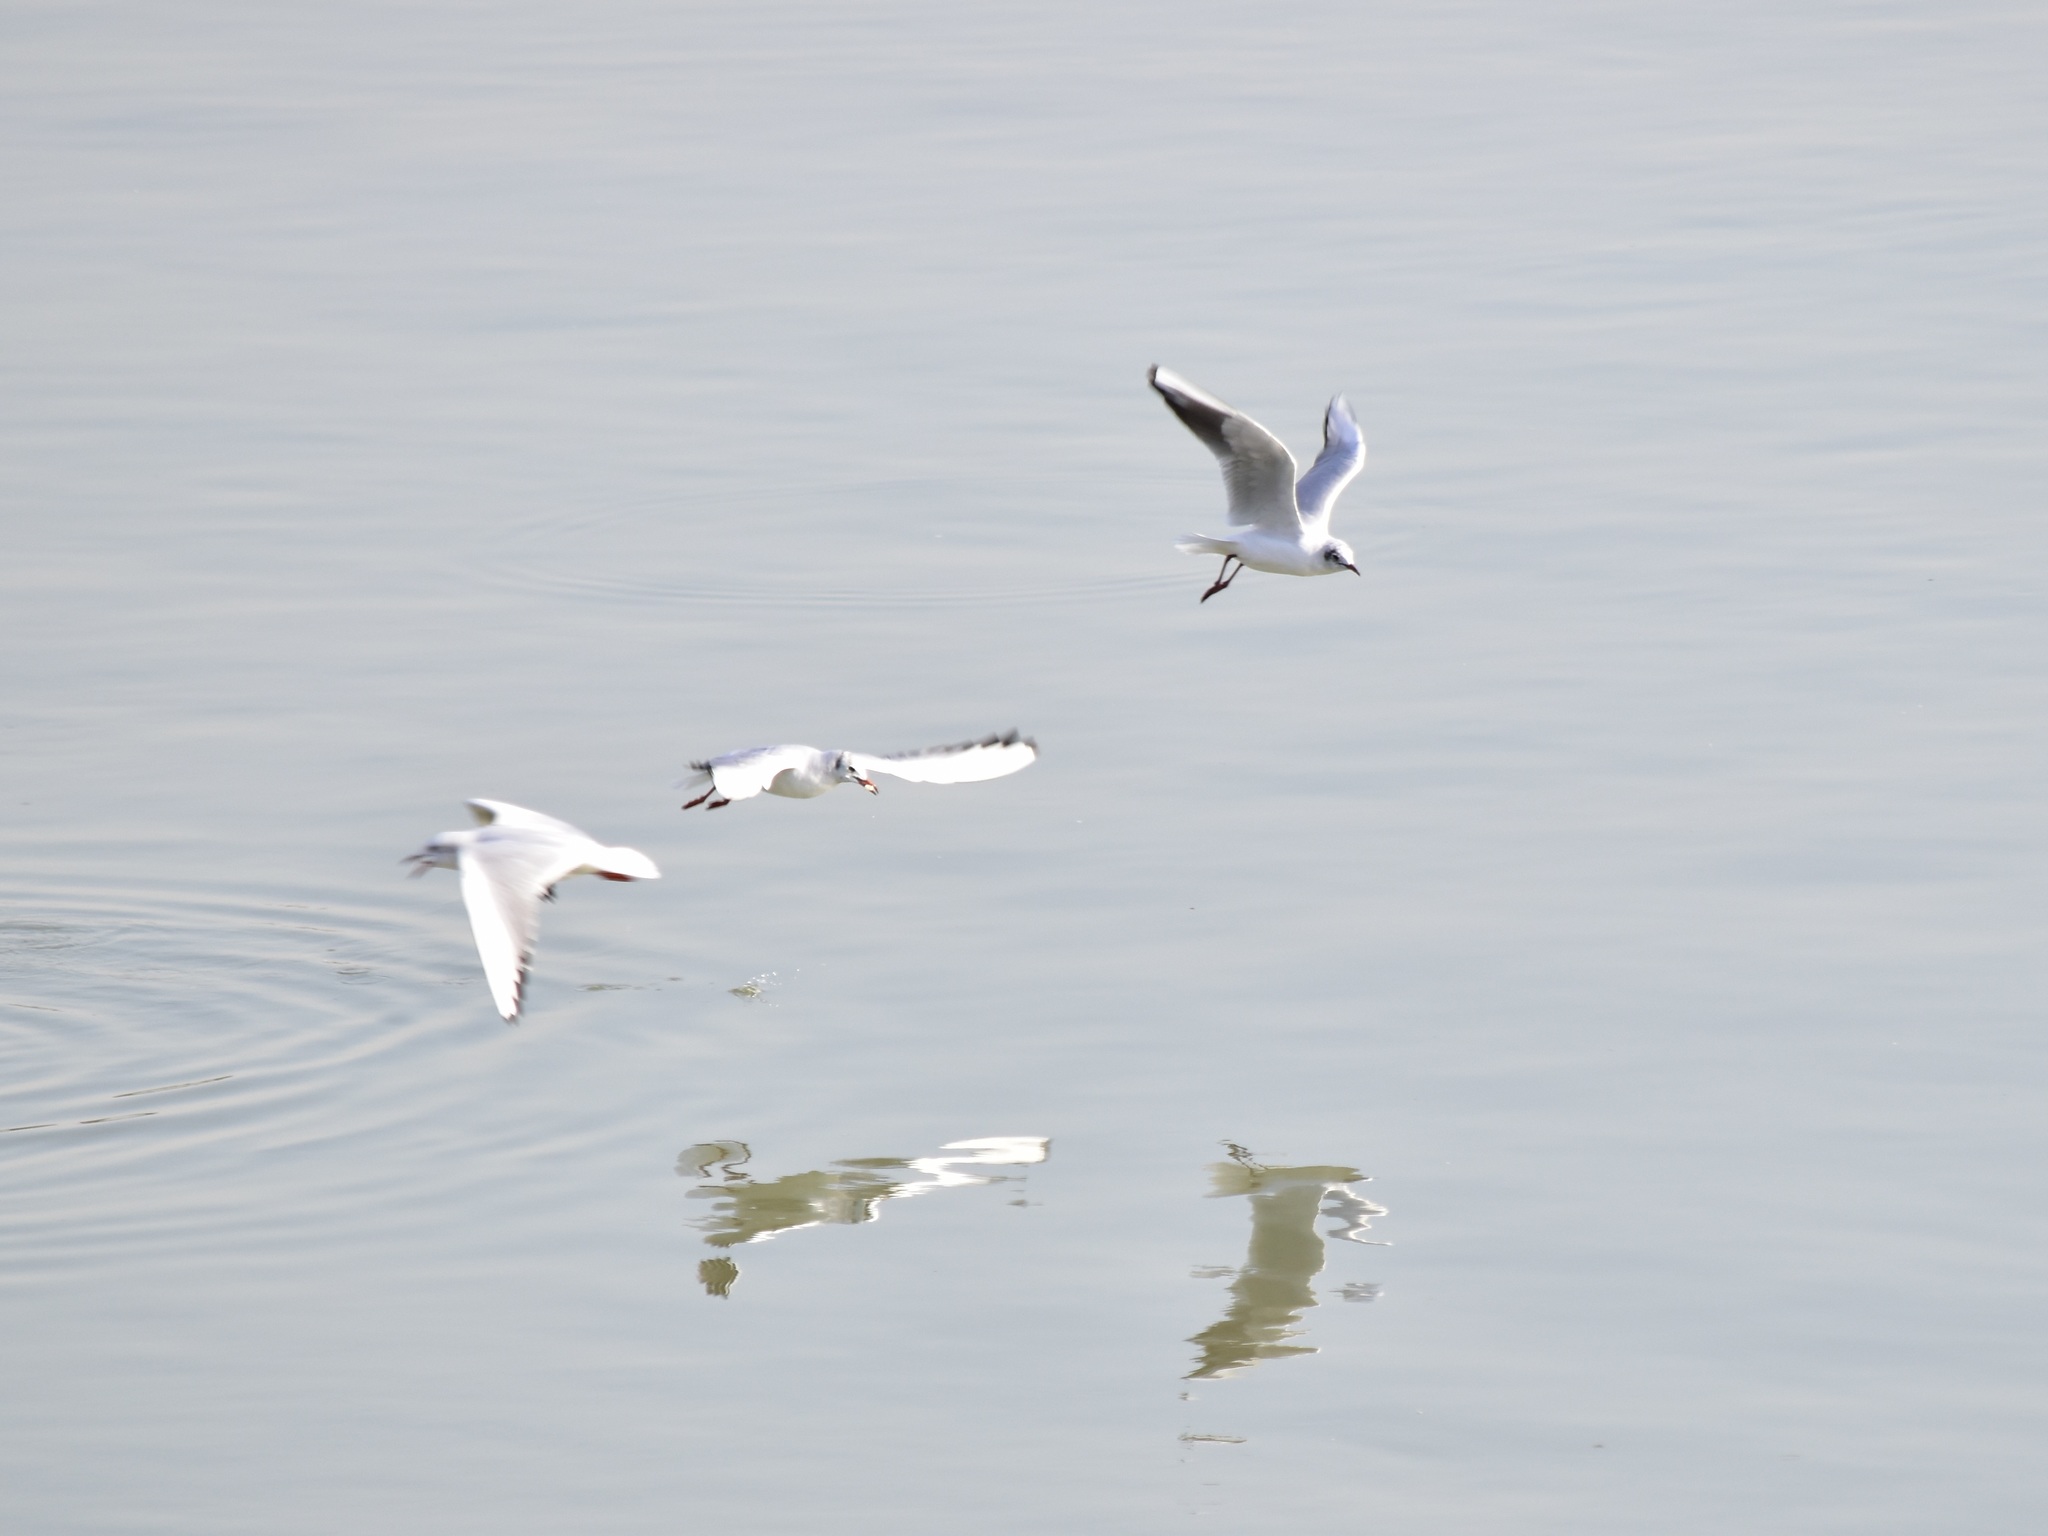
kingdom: Animalia
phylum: Chordata
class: Aves
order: Charadriiformes
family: Laridae
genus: Chroicocephalus
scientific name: Chroicocephalus ridibundus
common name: Black-headed gull
